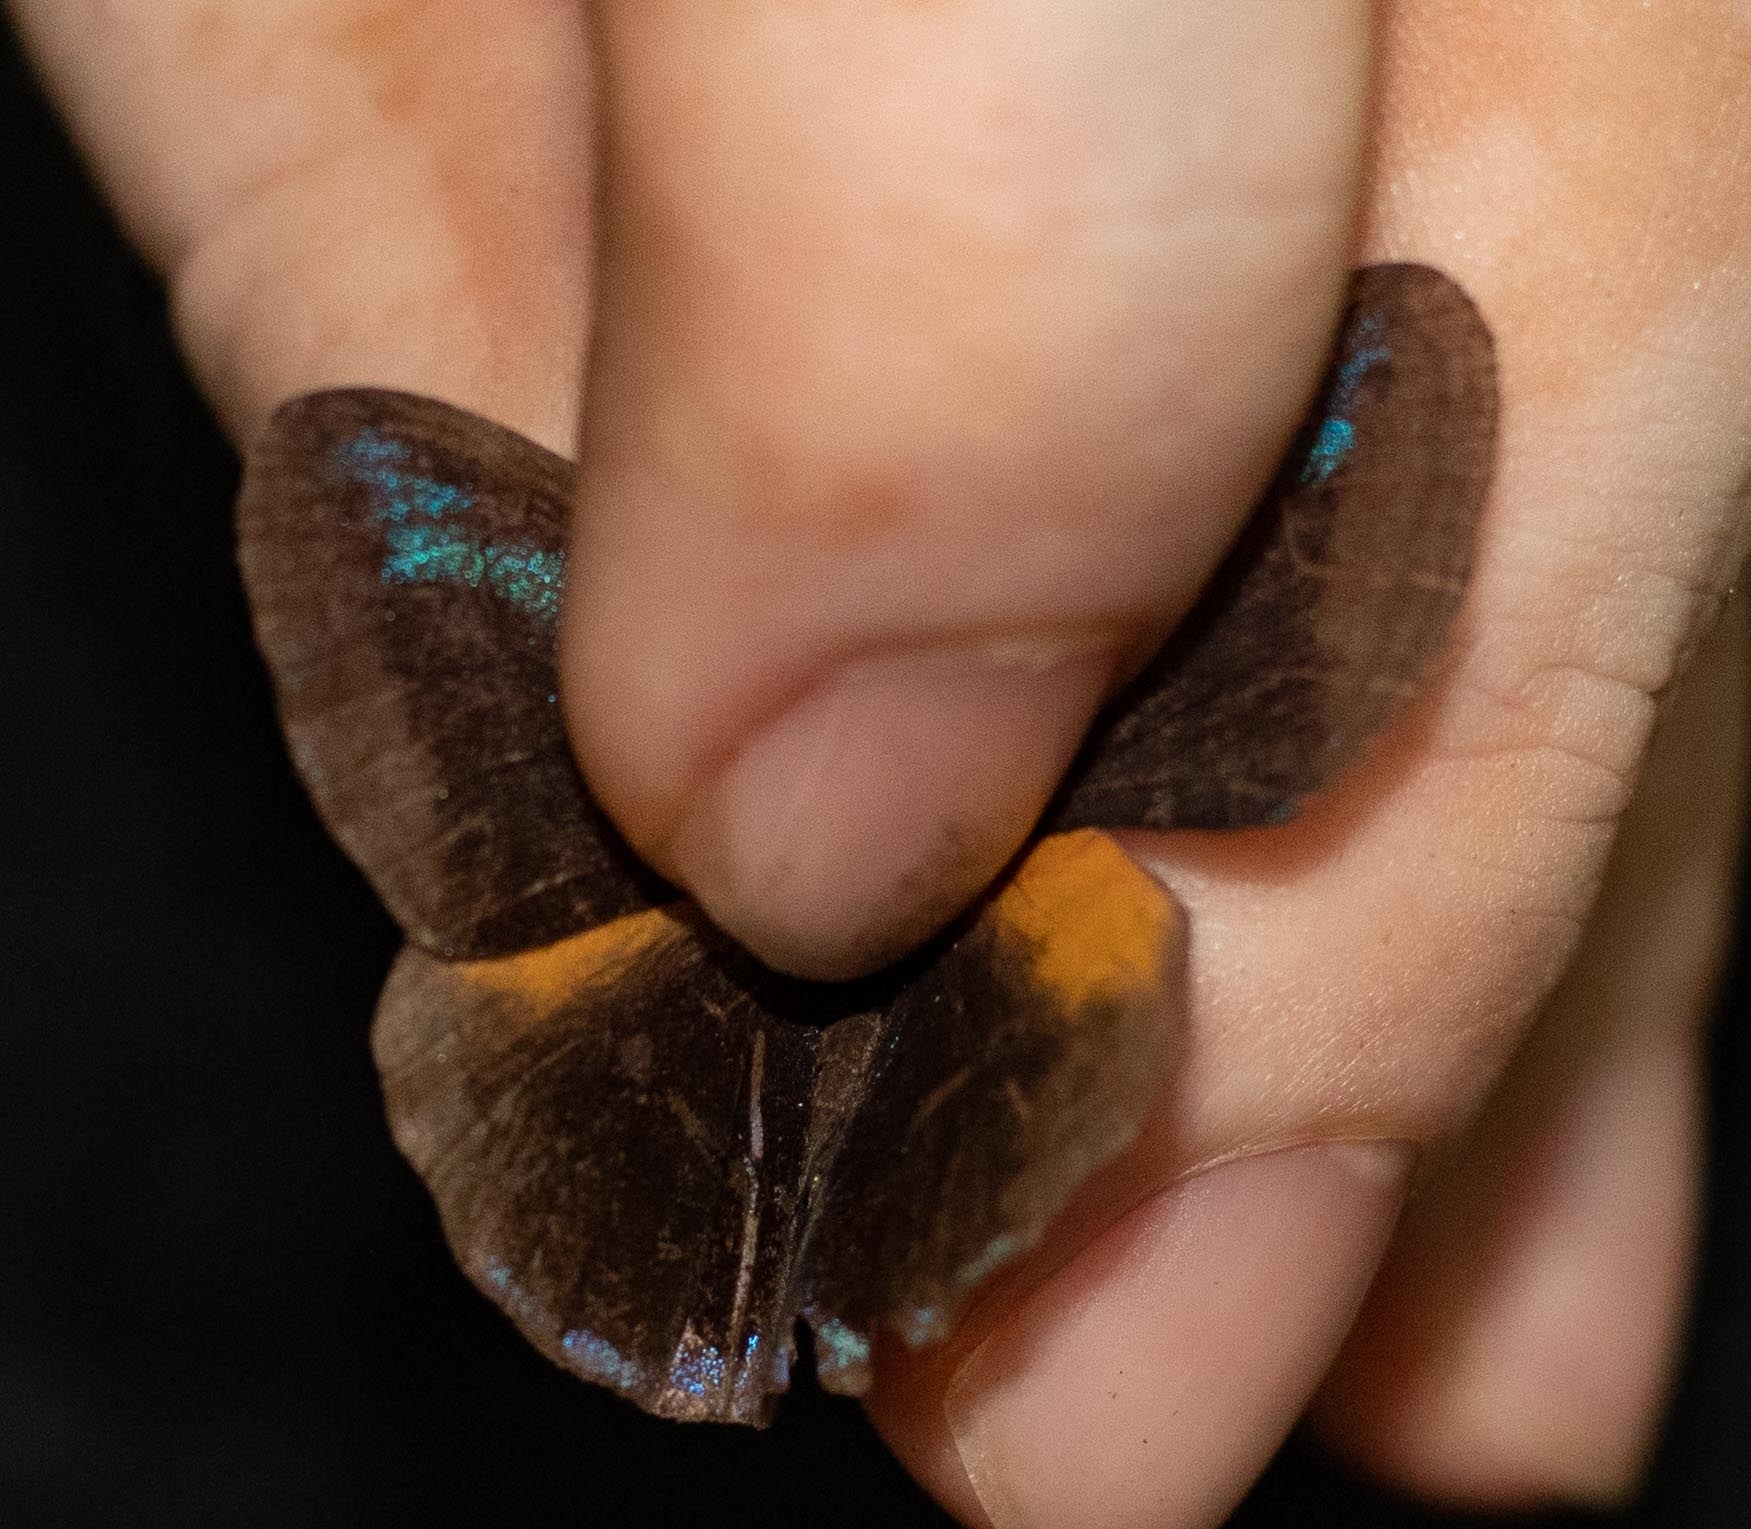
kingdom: Animalia
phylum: Arthropoda
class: Insecta
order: Lepidoptera
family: Nymphalidae
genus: Trico
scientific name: Trico tricolor
